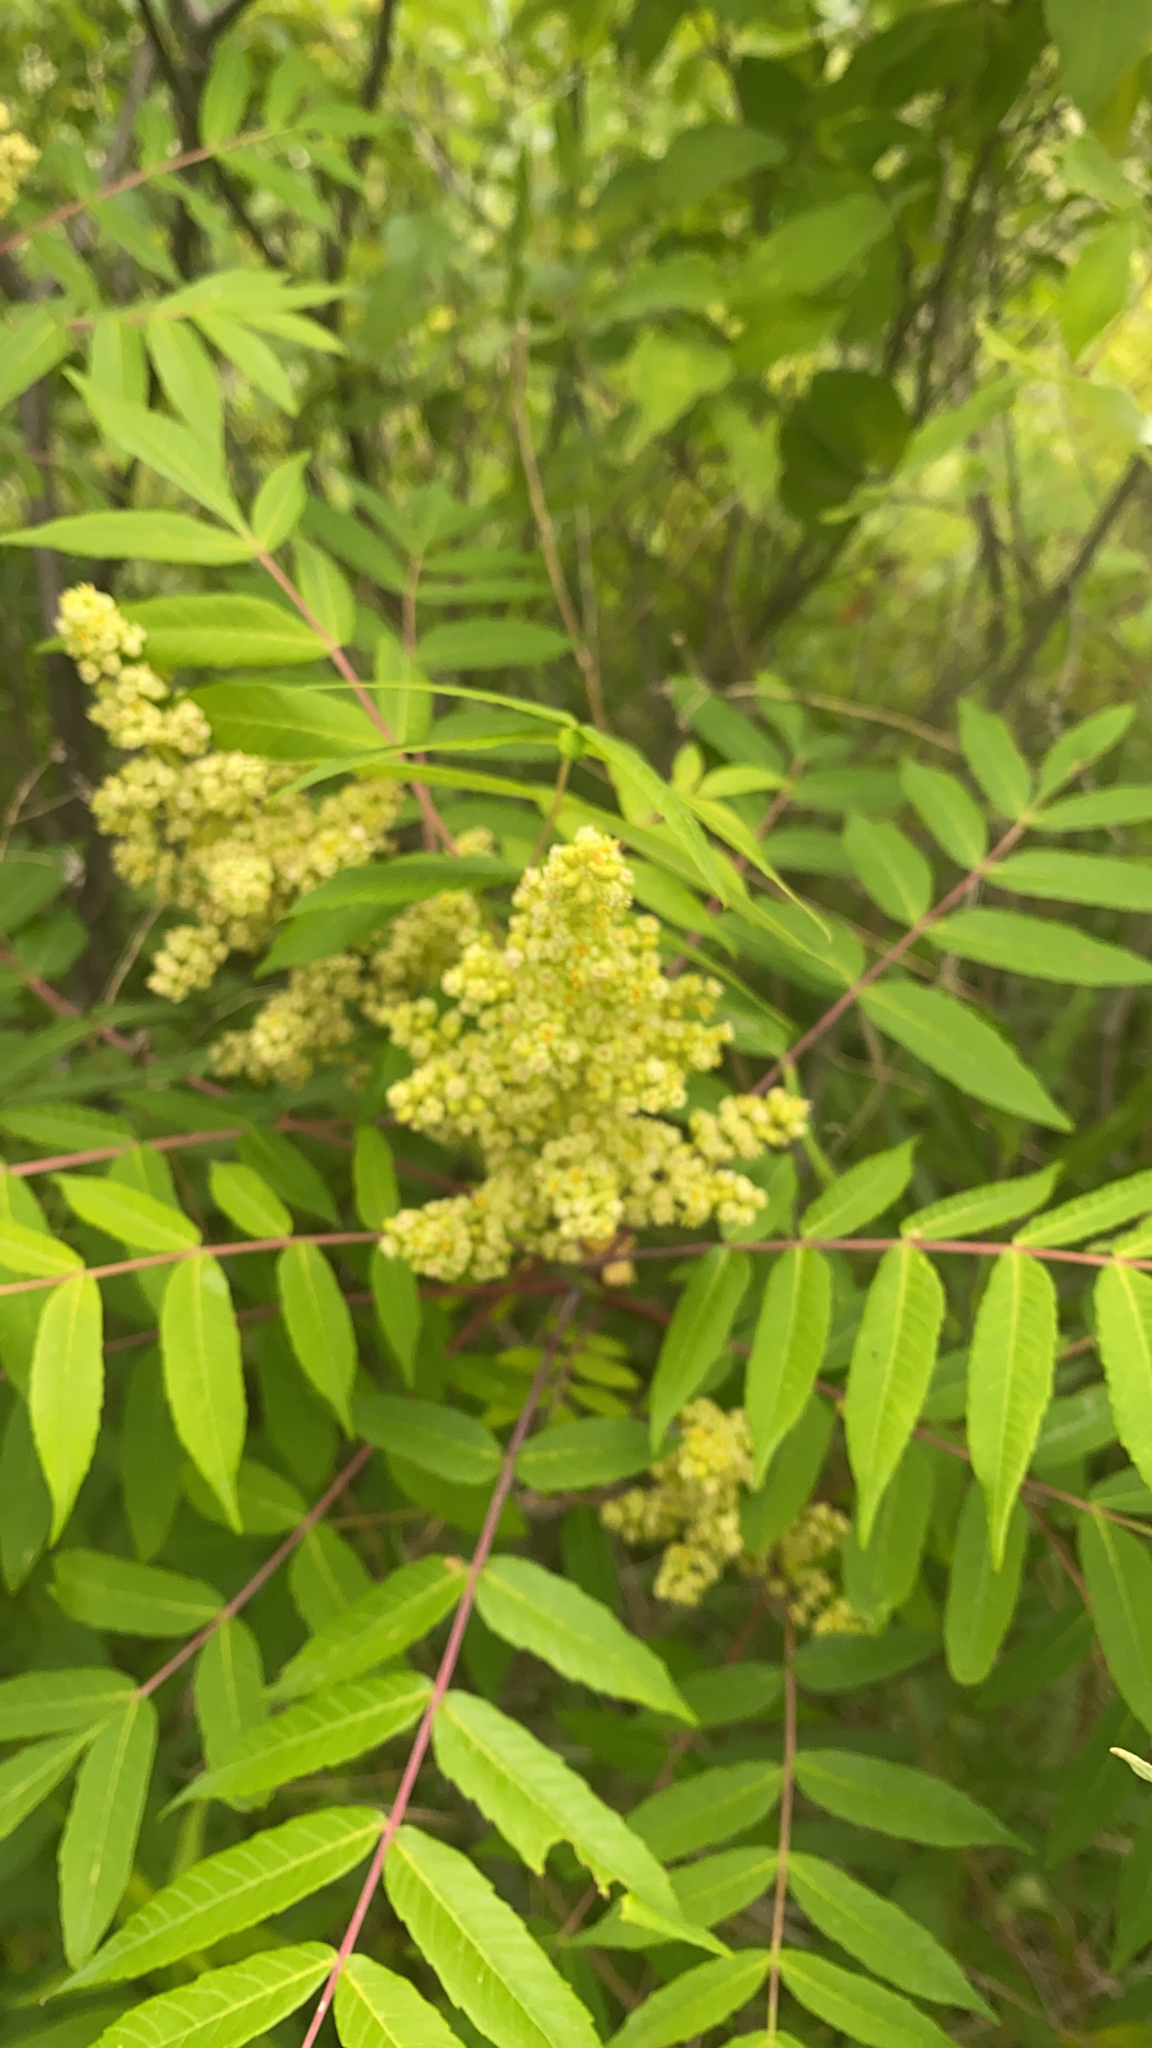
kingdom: Plantae
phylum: Tracheophyta
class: Magnoliopsida
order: Sapindales
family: Anacardiaceae
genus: Rhus
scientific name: Rhus glabra
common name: Scarlet sumac
